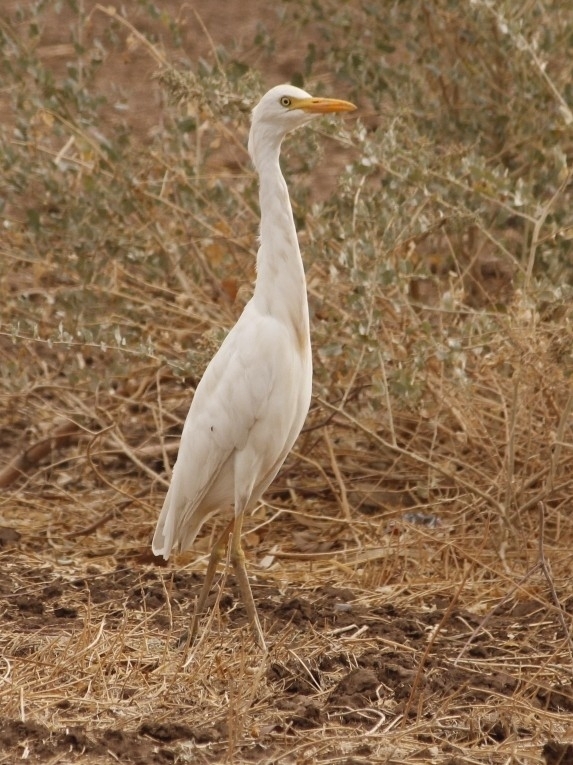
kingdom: Animalia
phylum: Chordata
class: Aves
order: Pelecaniformes
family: Ardeidae
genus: Bubulcus
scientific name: Bubulcus ibis
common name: Cattle egret
